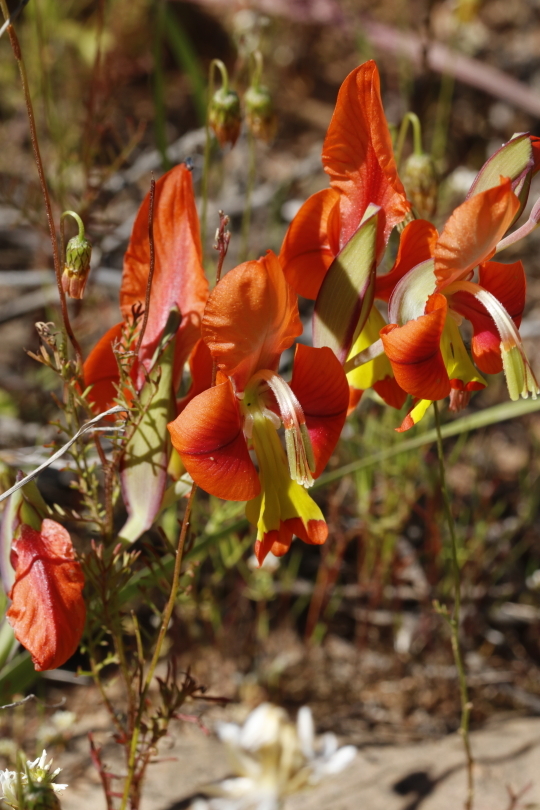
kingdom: Plantae
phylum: Tracheophyta
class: Liliopsida
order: Asparagales
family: Iridaceae
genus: Gladiolus
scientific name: Gladiolus alatus
